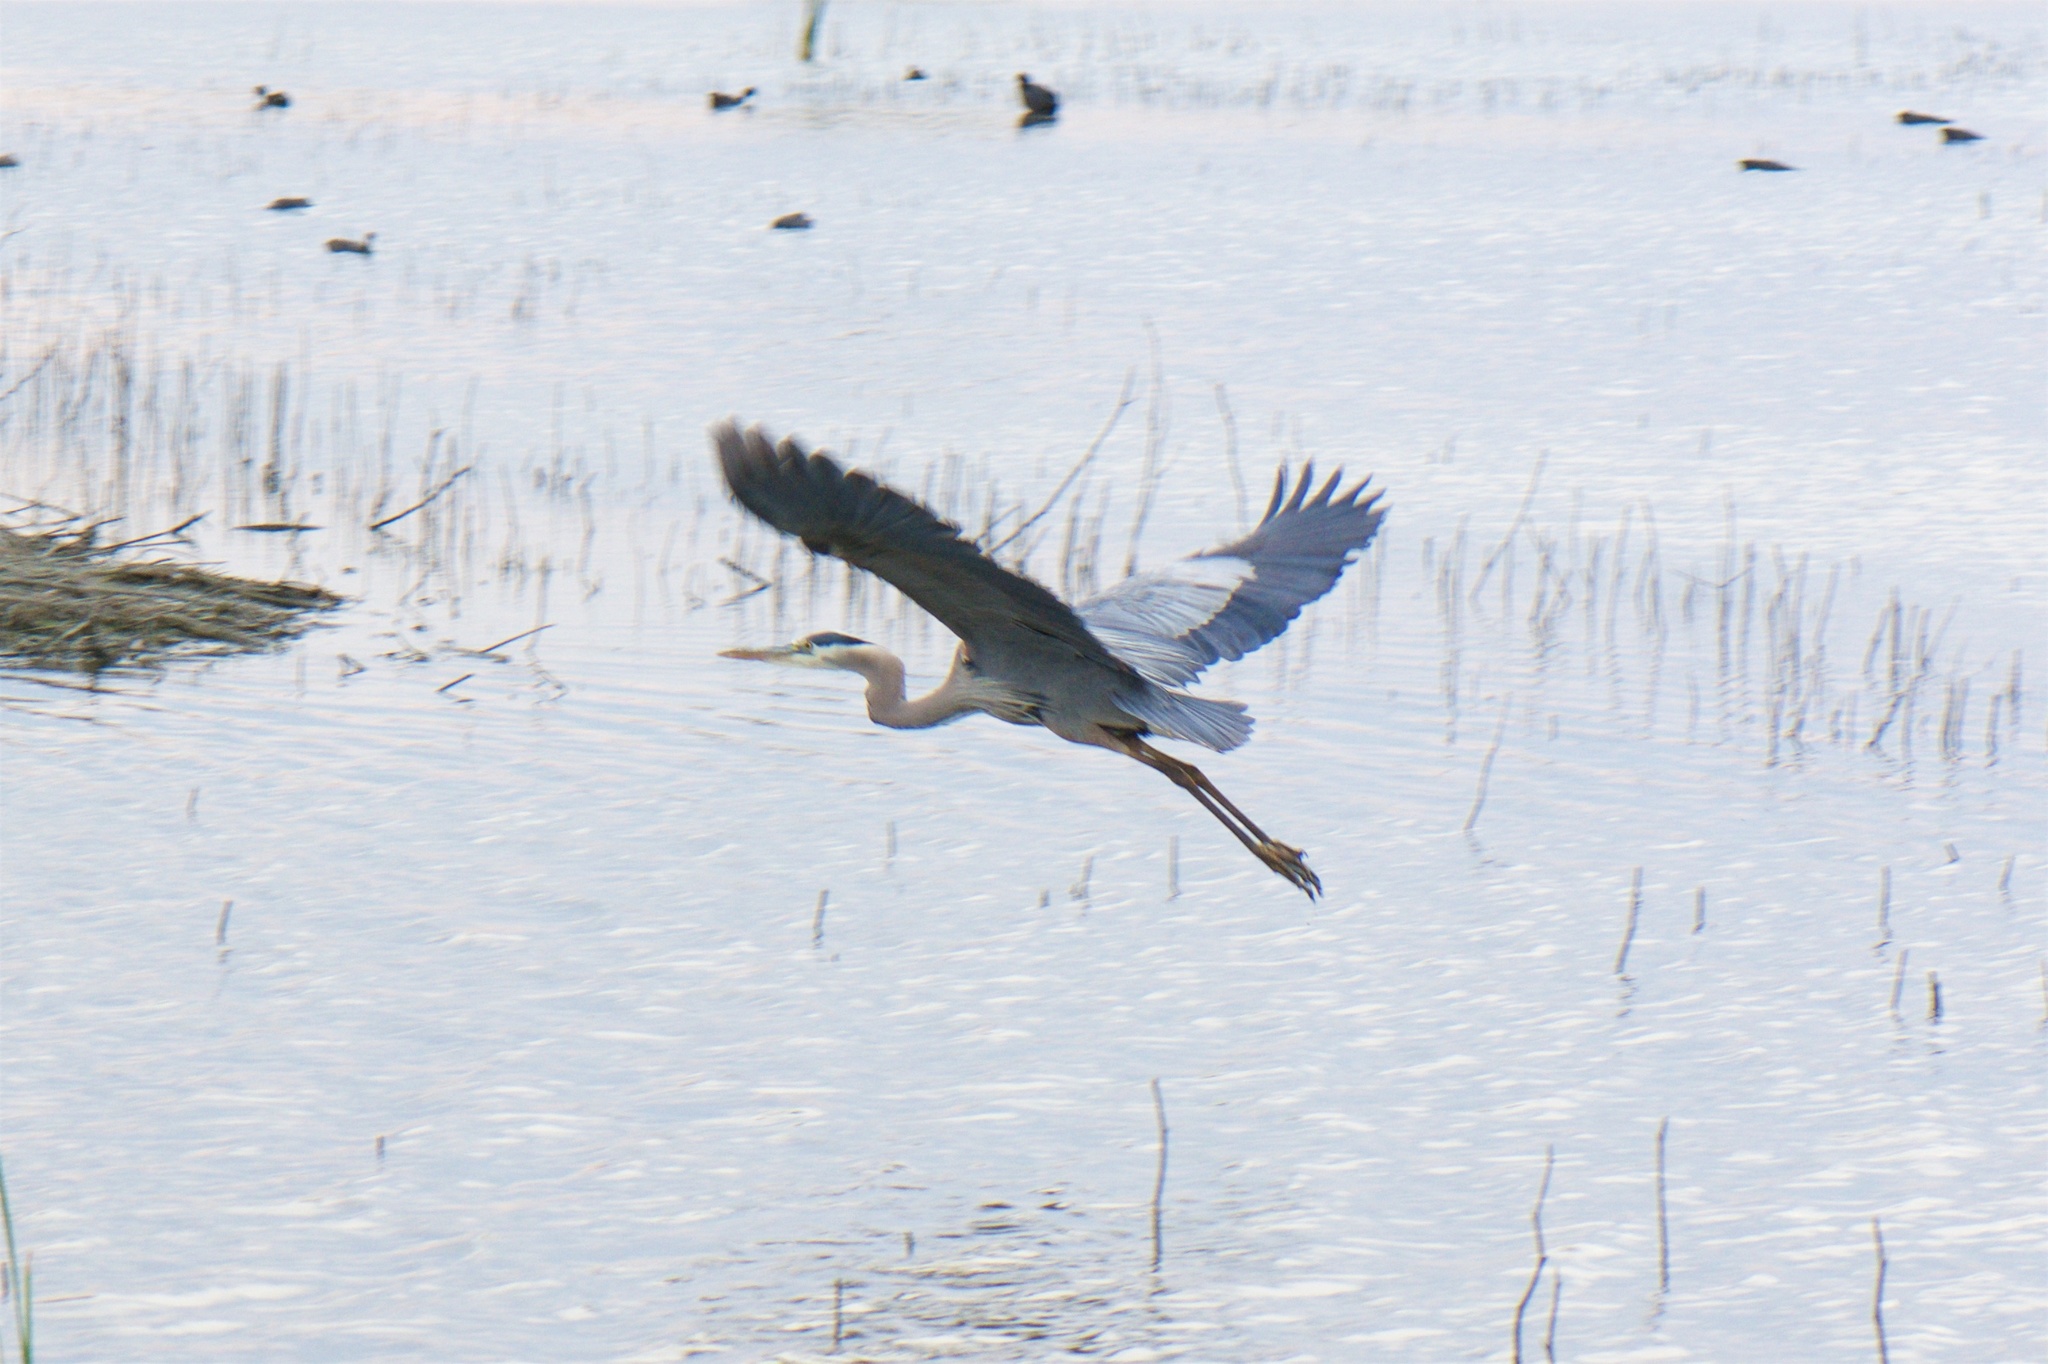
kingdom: Animalia
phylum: Chordata
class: Aves
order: Pelecaniformes
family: Ardeidae
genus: Ardea
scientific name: Ardea herodias
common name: Great blue heron
